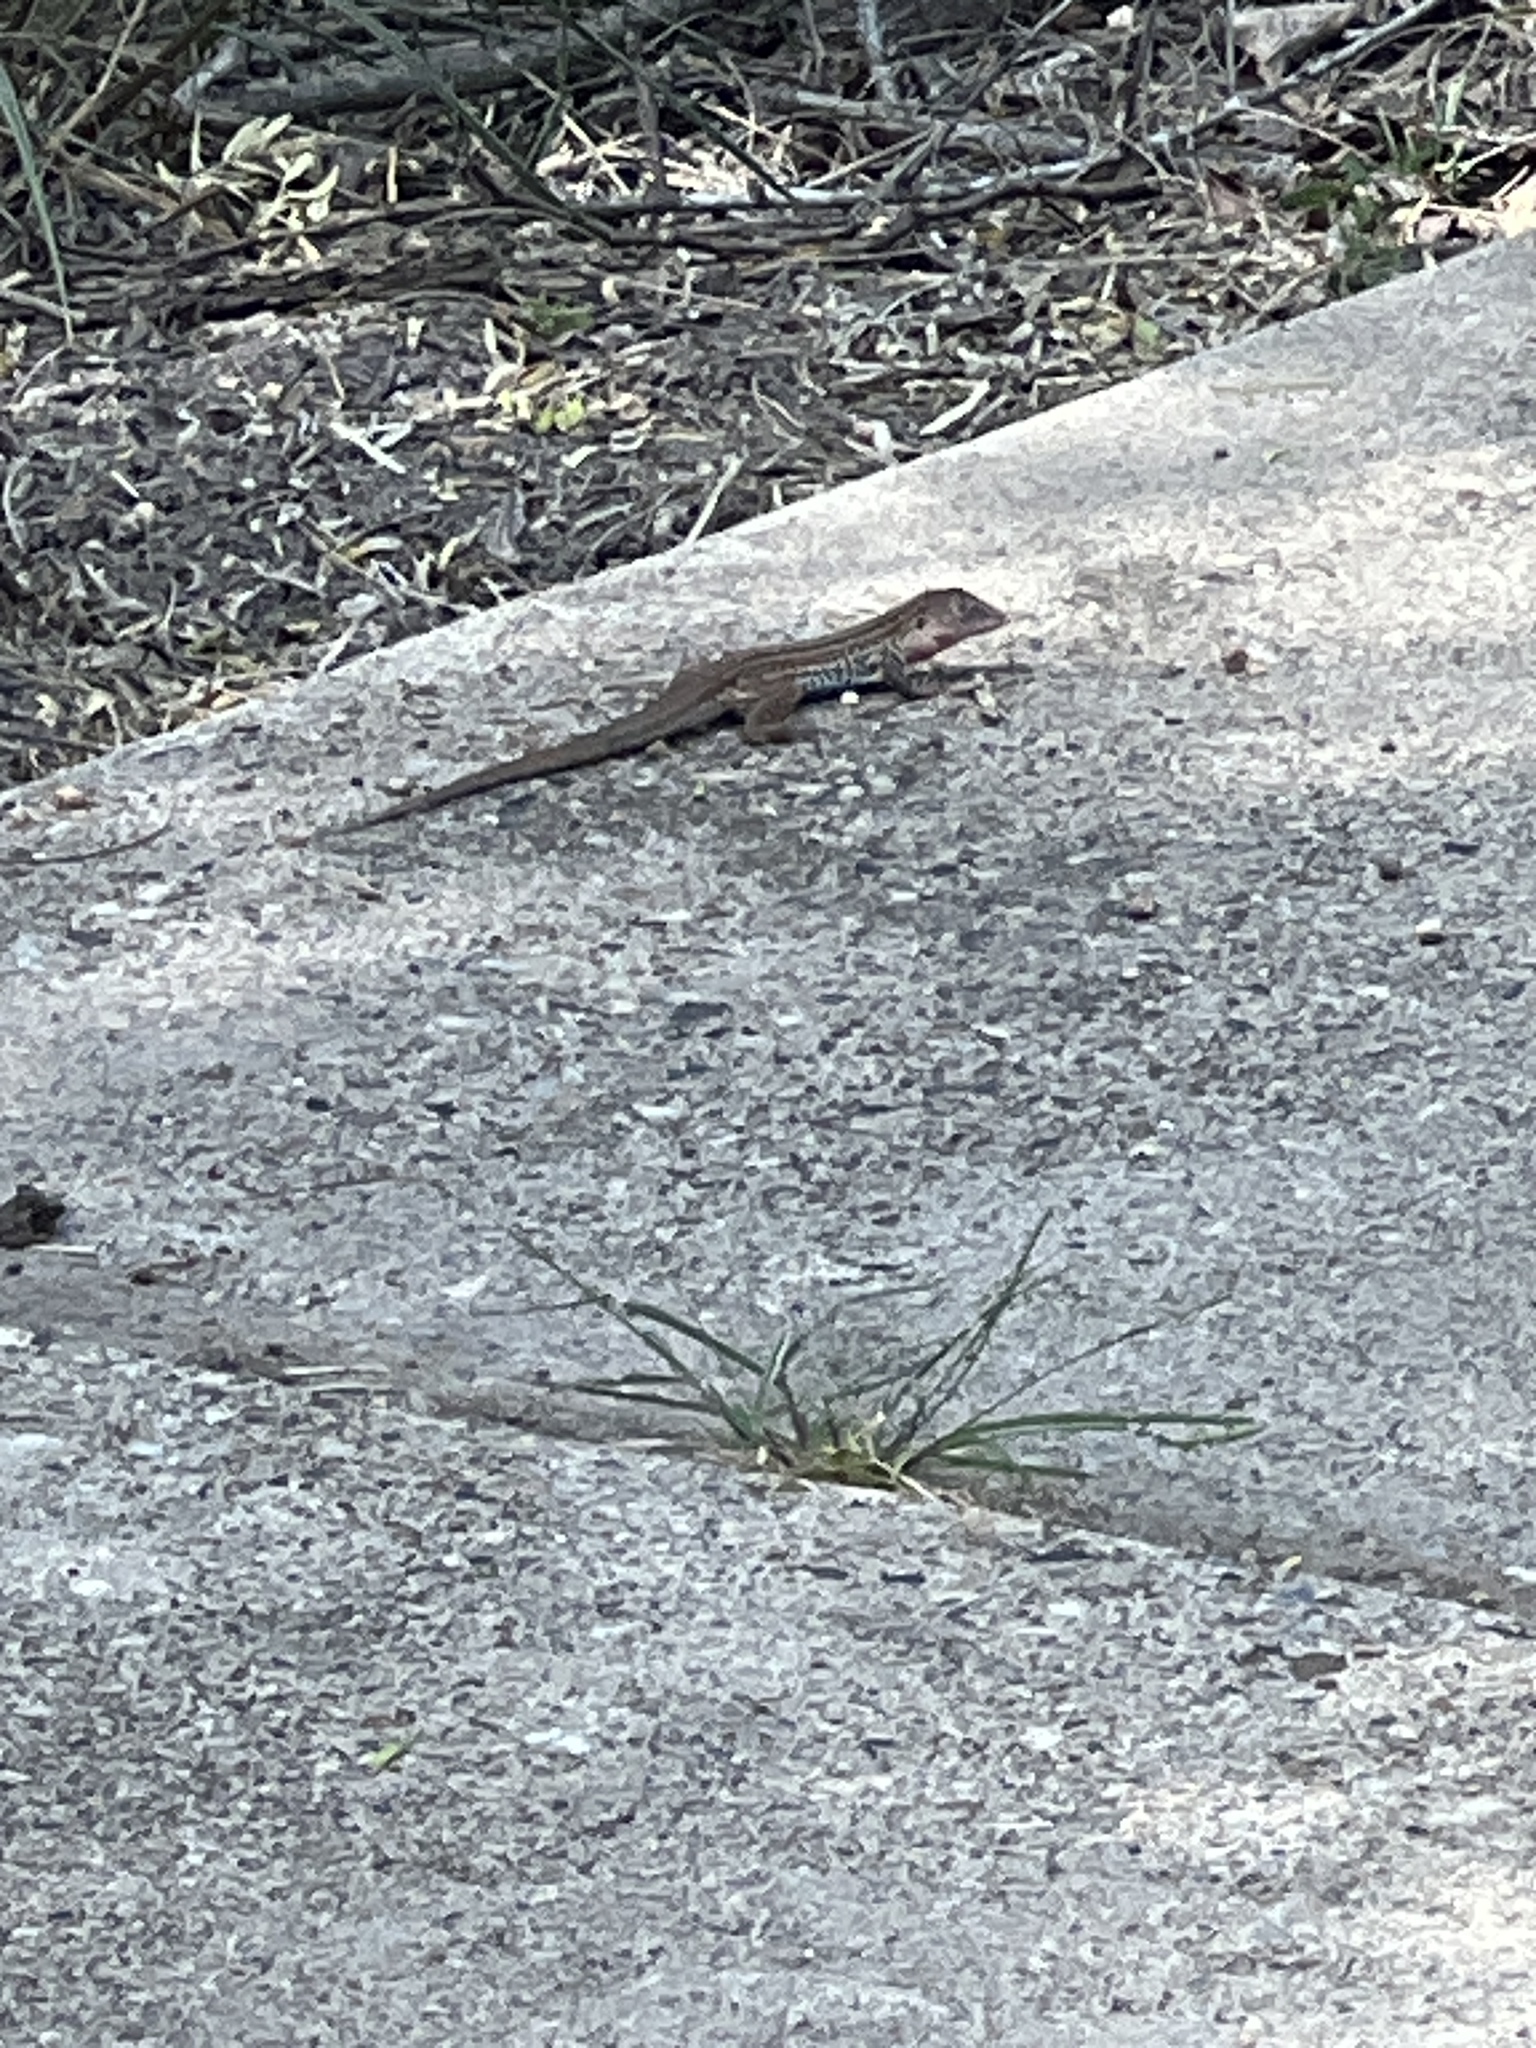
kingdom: Animalia
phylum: Chordata
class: Squamata
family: Teiidae
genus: Aspidoscelis
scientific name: Aspidoscelis gularis
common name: Eastern spotted whiptail
